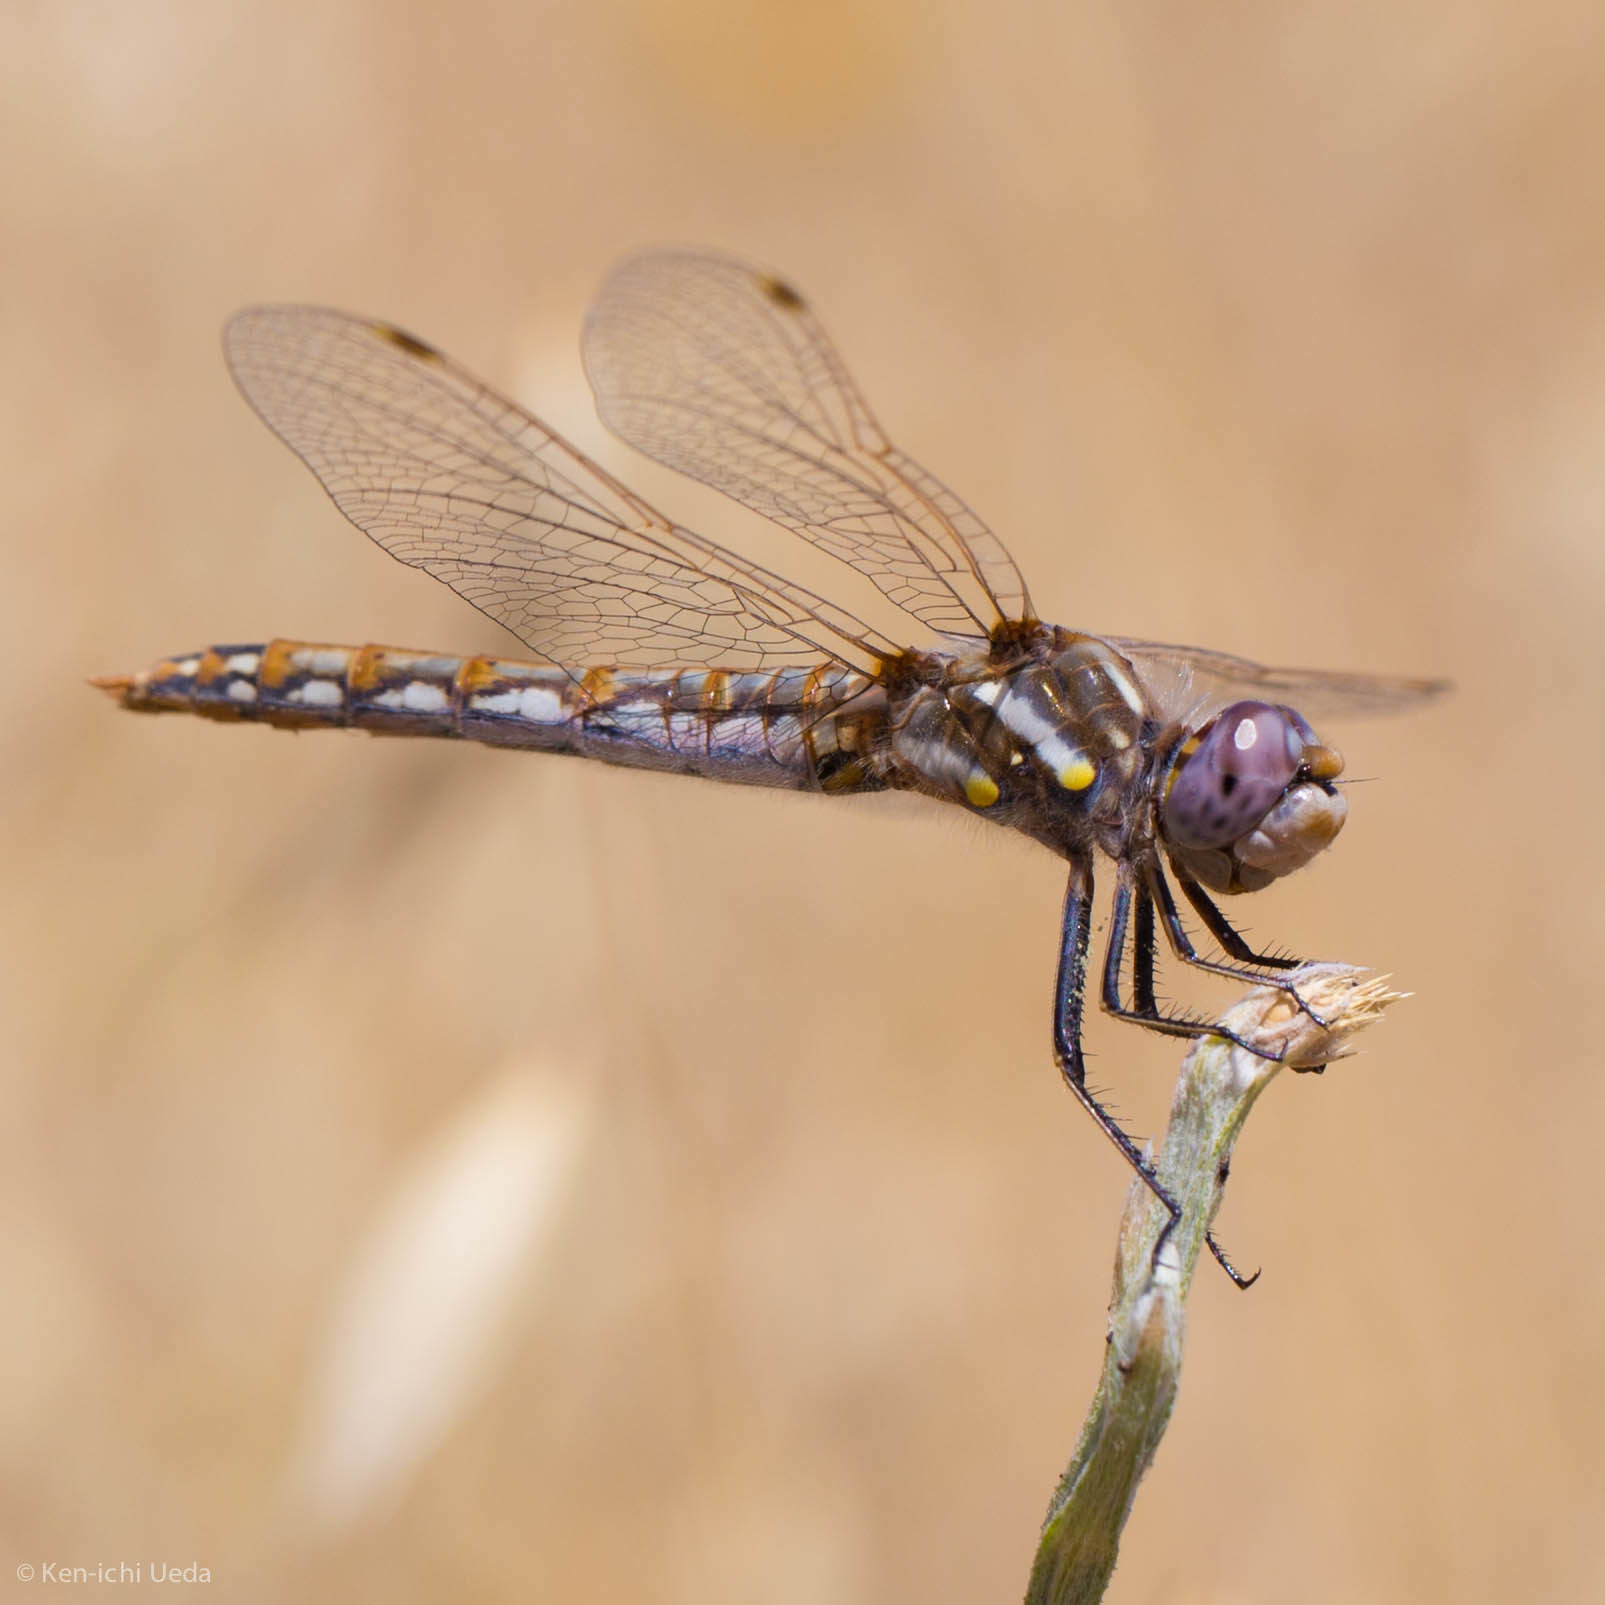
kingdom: Animalia
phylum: Arthropoda
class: Insecta
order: Odonata
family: Libellulidae
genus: Sympetrum
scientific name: Sympetrum corruptum
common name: Variegated meadowhawk
